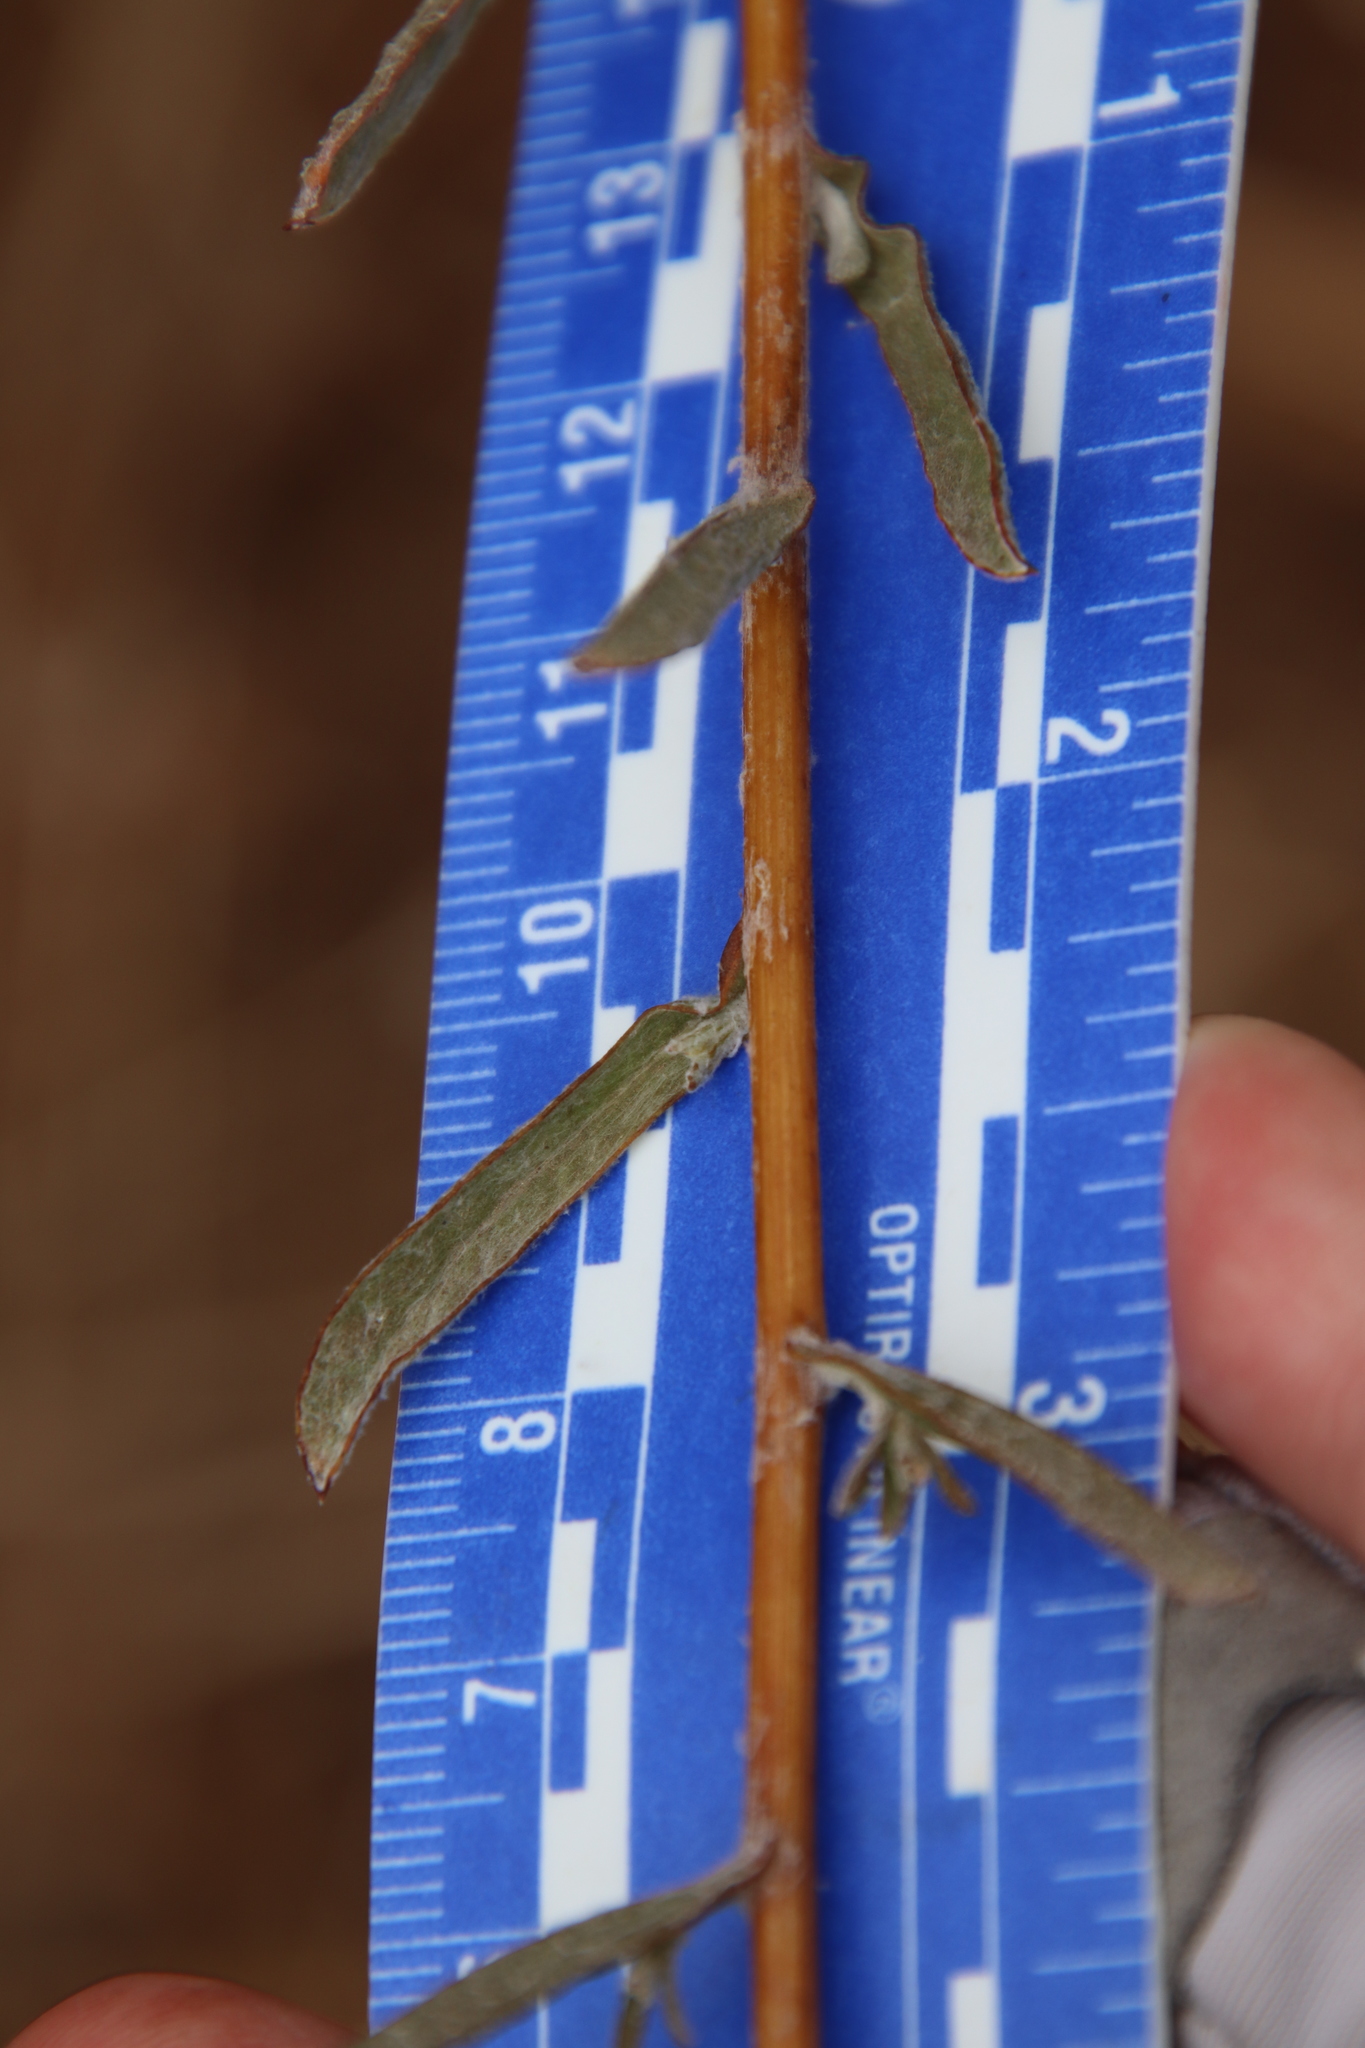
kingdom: Plantae
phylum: Tracheophyta
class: Magnoliopsida
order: Asterales
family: Asteraceae
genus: Corethrogyne
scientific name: Corethrogyne filaginifolia
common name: Sand-aster
